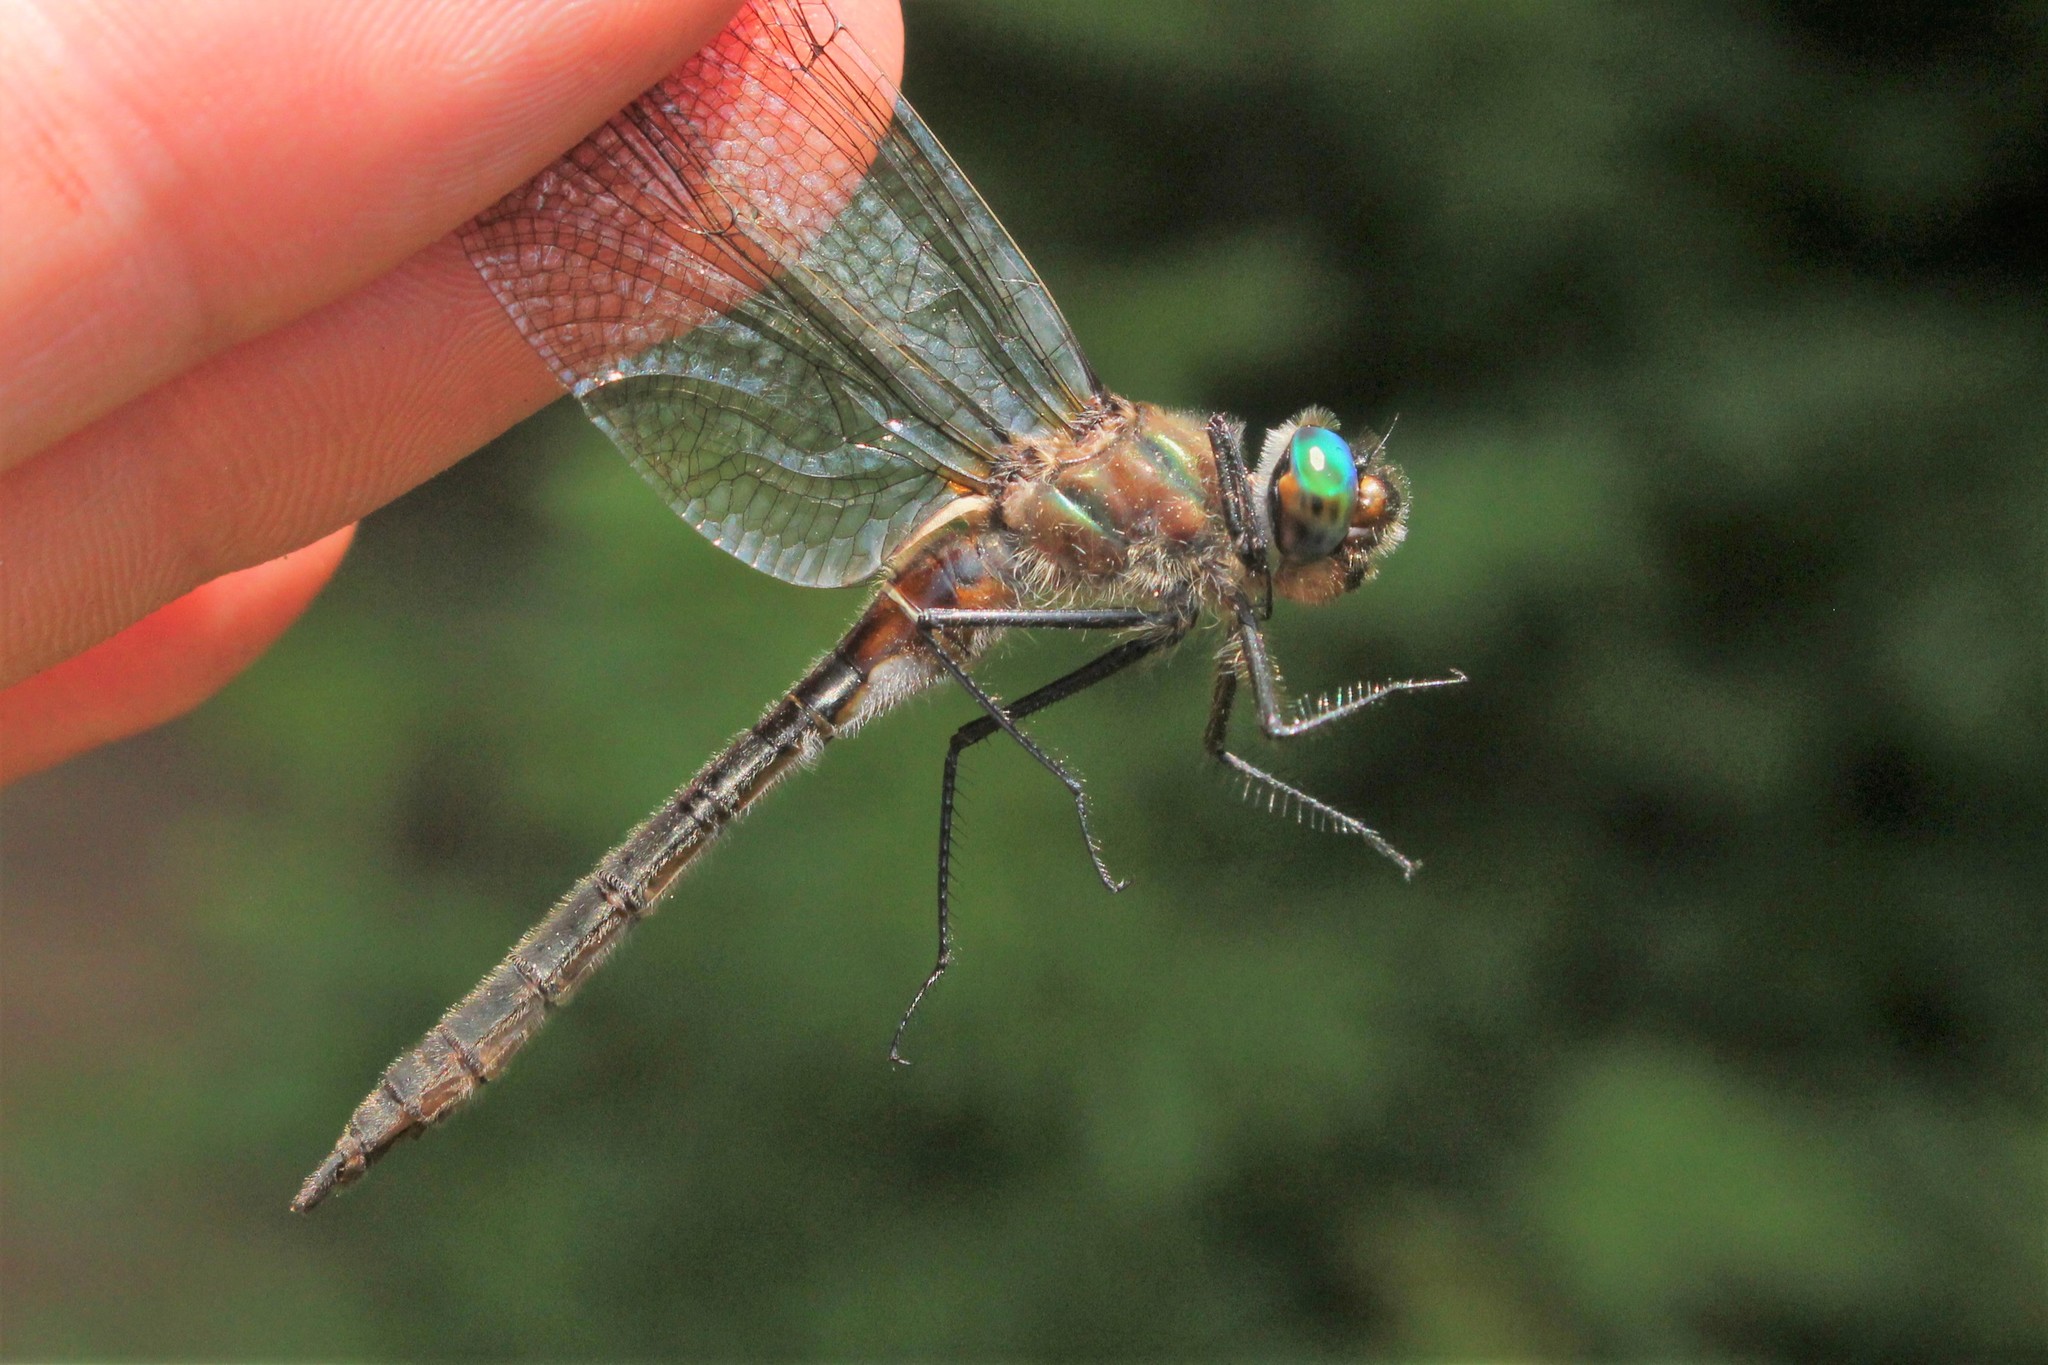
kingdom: Animalia
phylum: Arthropoda
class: Insecta
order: Odonata
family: Corduliidae
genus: Cordulia
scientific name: Cordulia shurtleffii
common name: American emerald
